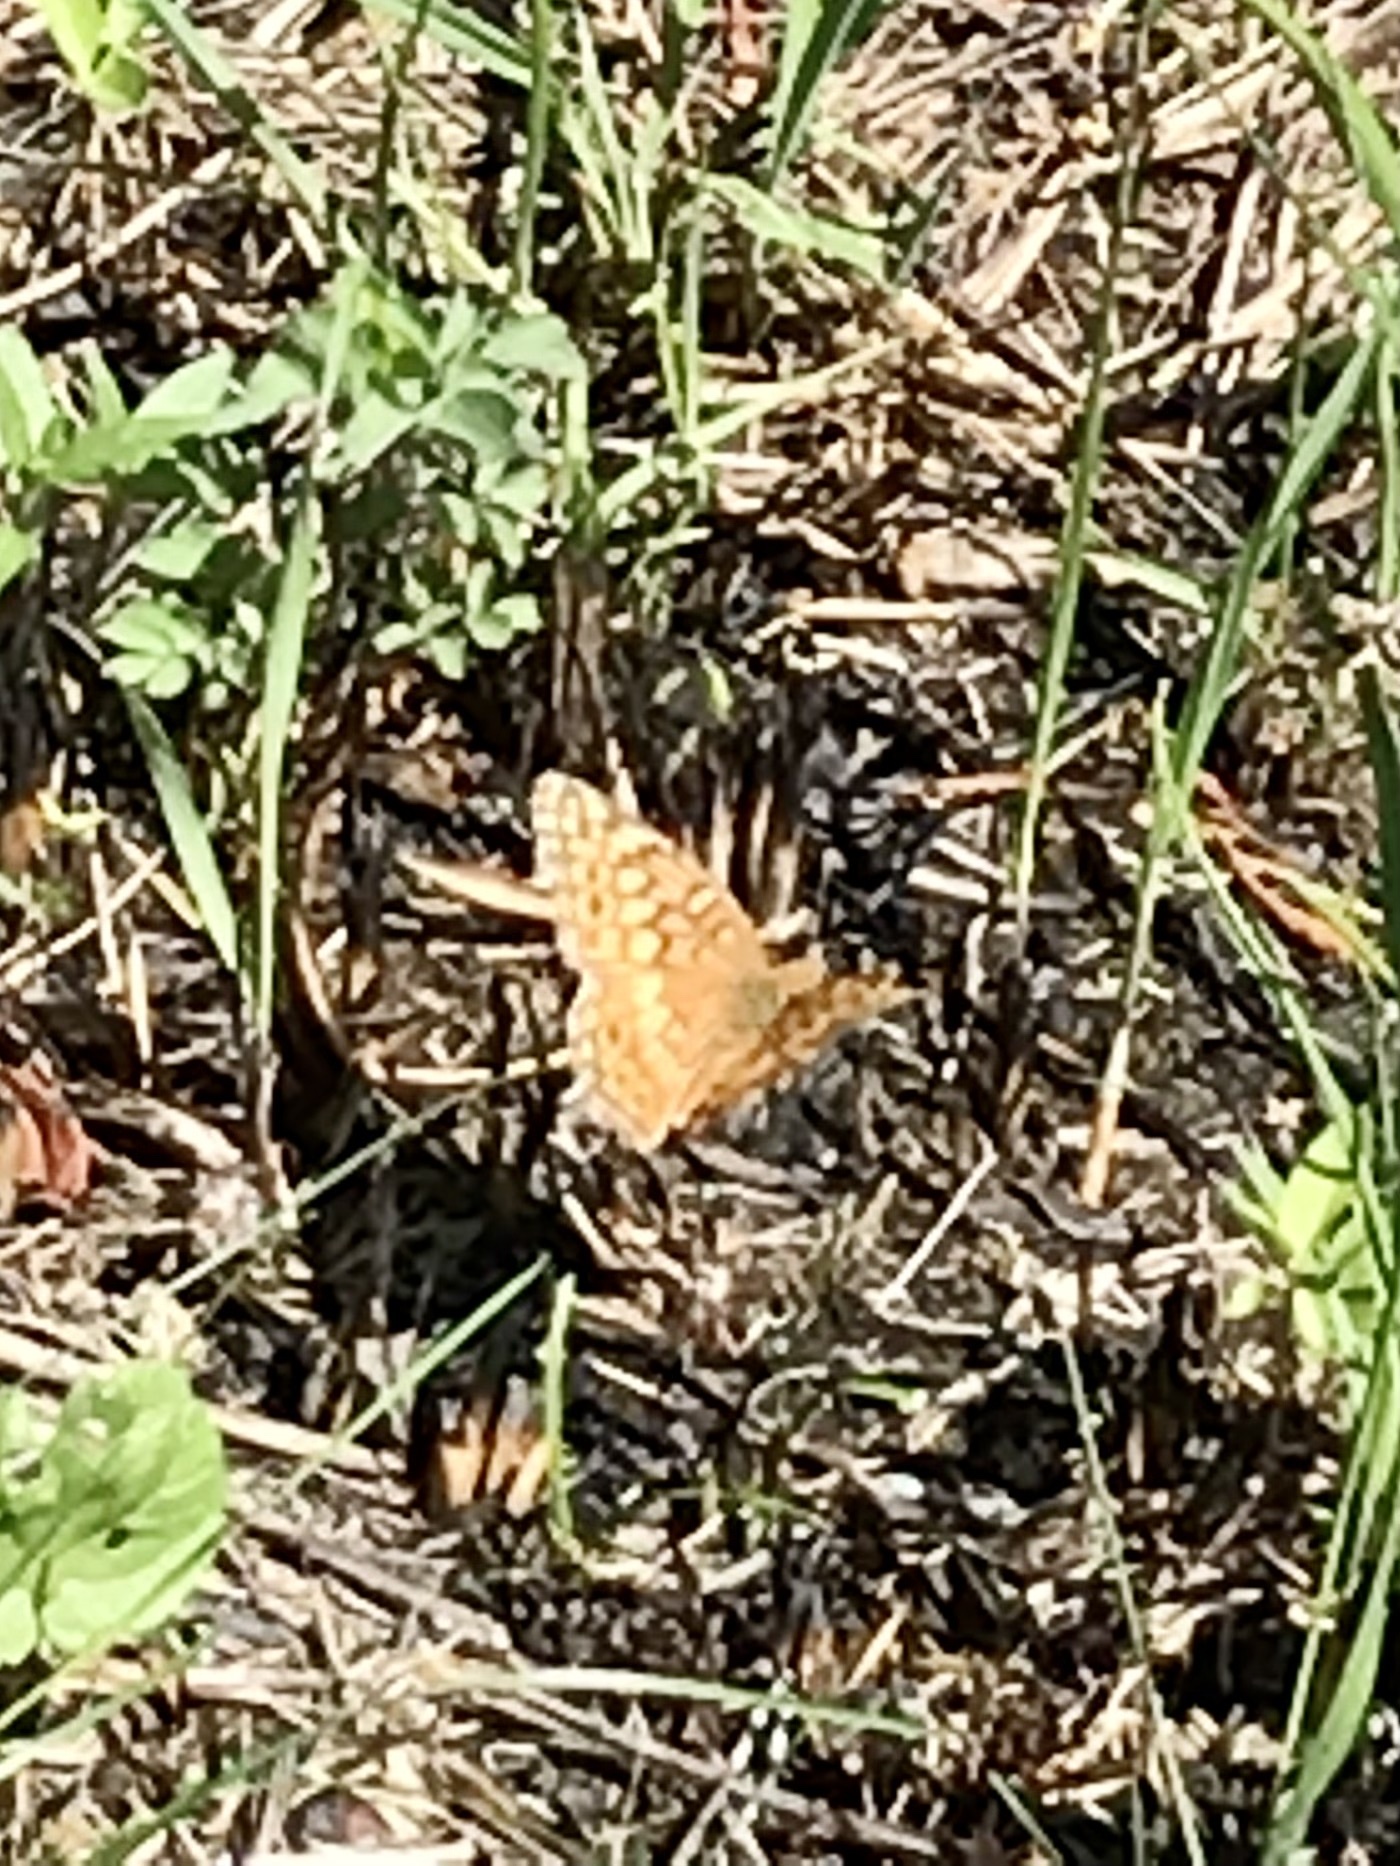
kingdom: Animalia
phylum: Arthropoda
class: Insecta
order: Lepidoptera
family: Nymphalidae
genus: Euptoieta
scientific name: Euptoieta claudia
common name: Variegated fritillary
